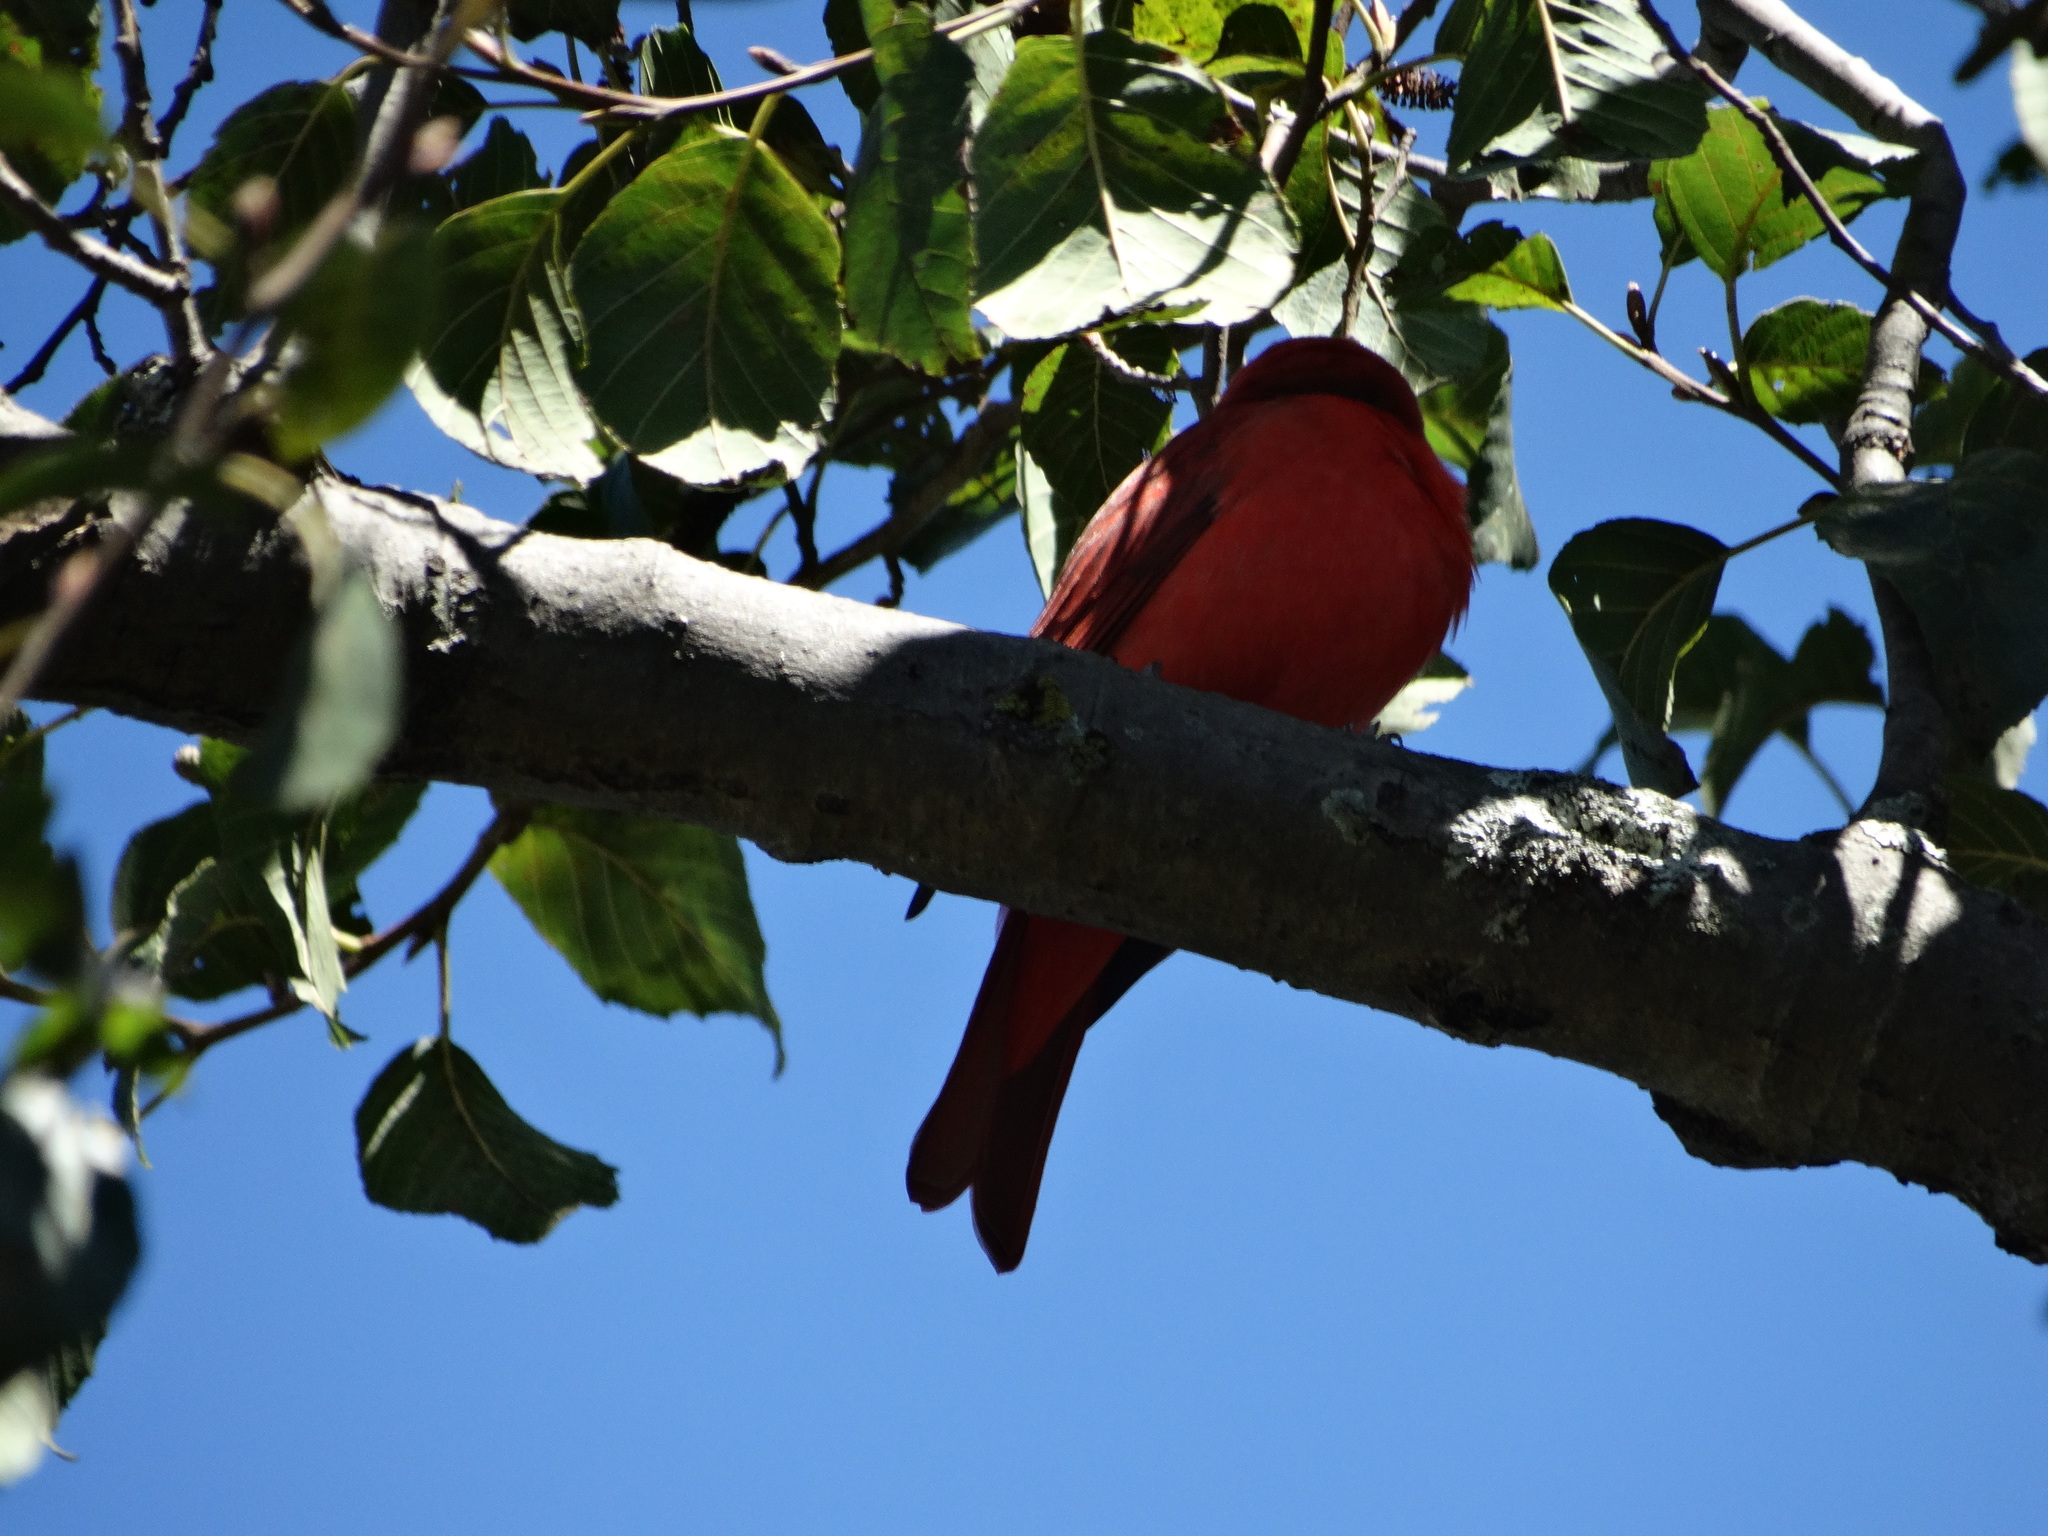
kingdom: Animalia
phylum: Chordata
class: Aves
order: Passeriformes
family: Cardinalidae
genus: Piranga
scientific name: Piranga rubra
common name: Summer tanager
